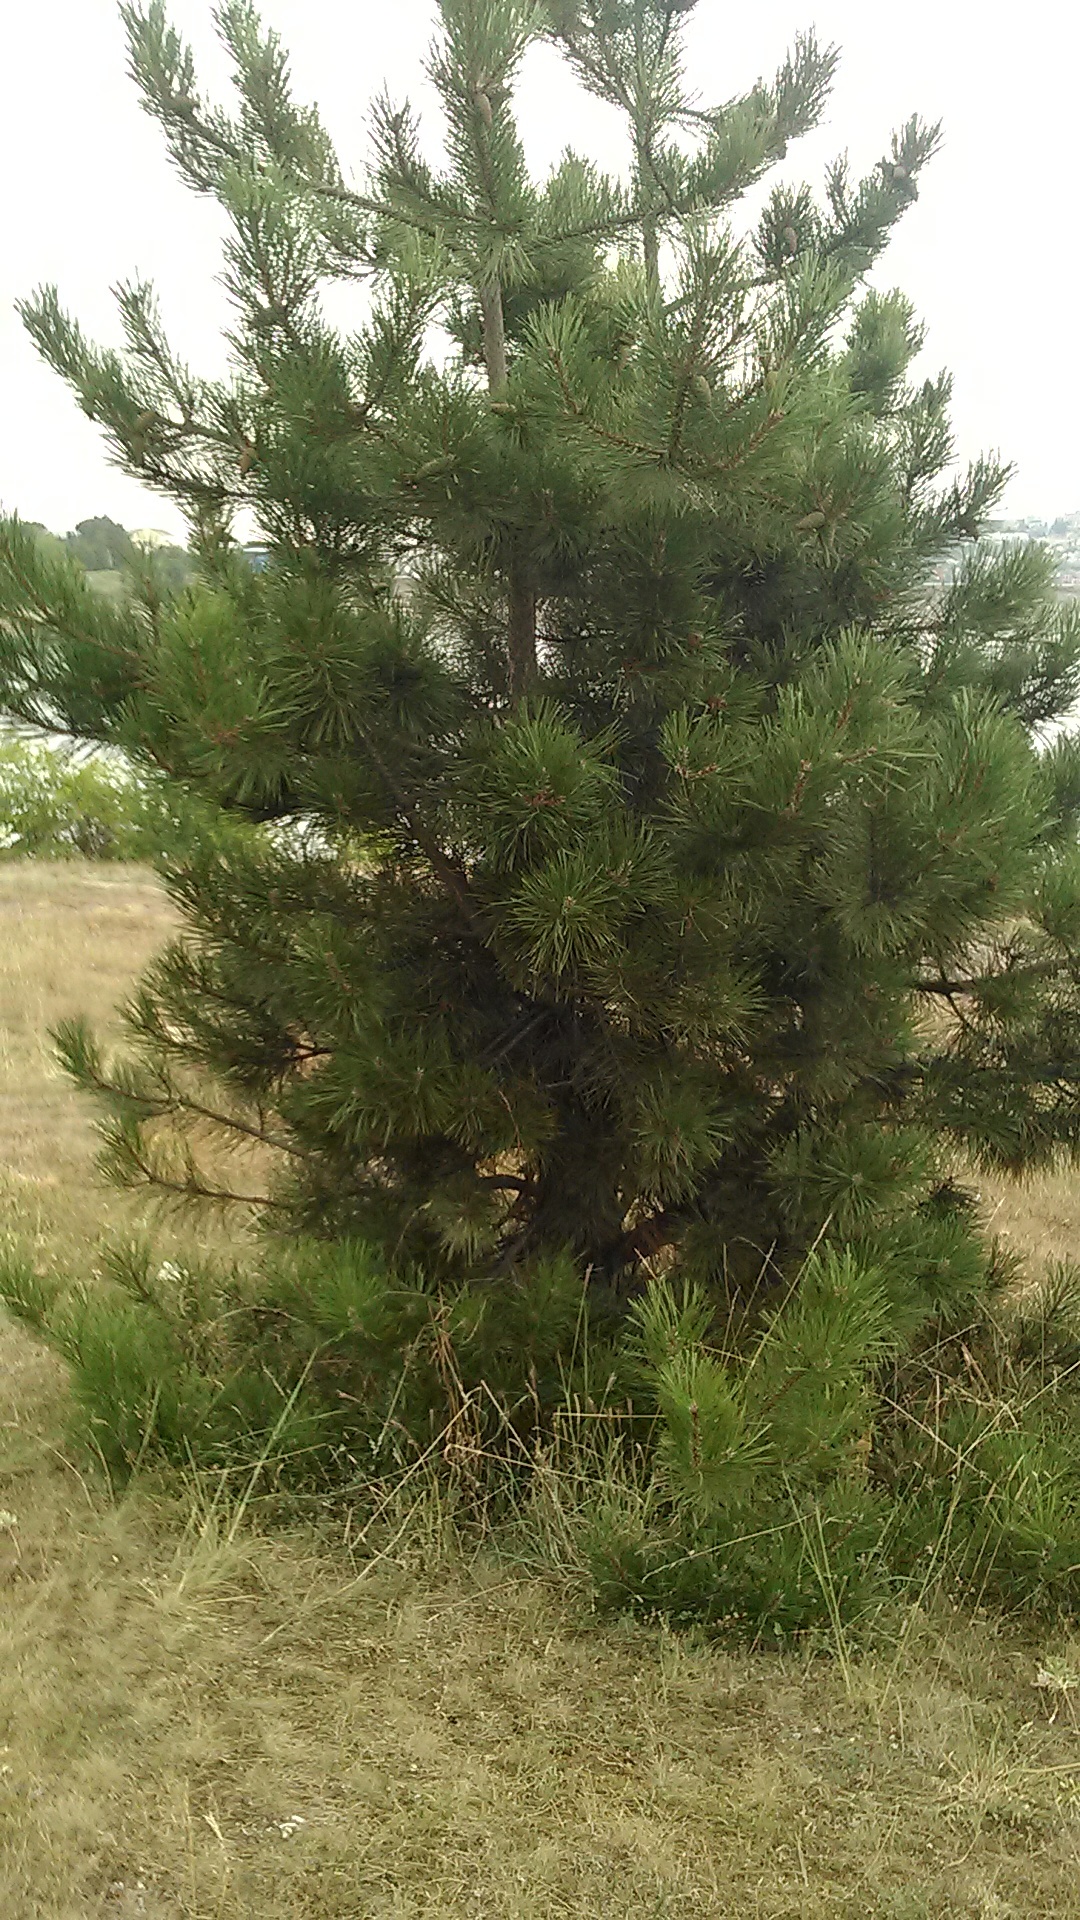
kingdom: Plantae
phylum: Tracheophyta
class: Pinopsida
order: Pinales
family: Pinaceae
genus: Pinus
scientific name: Pinus nigra
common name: Austrian pine
